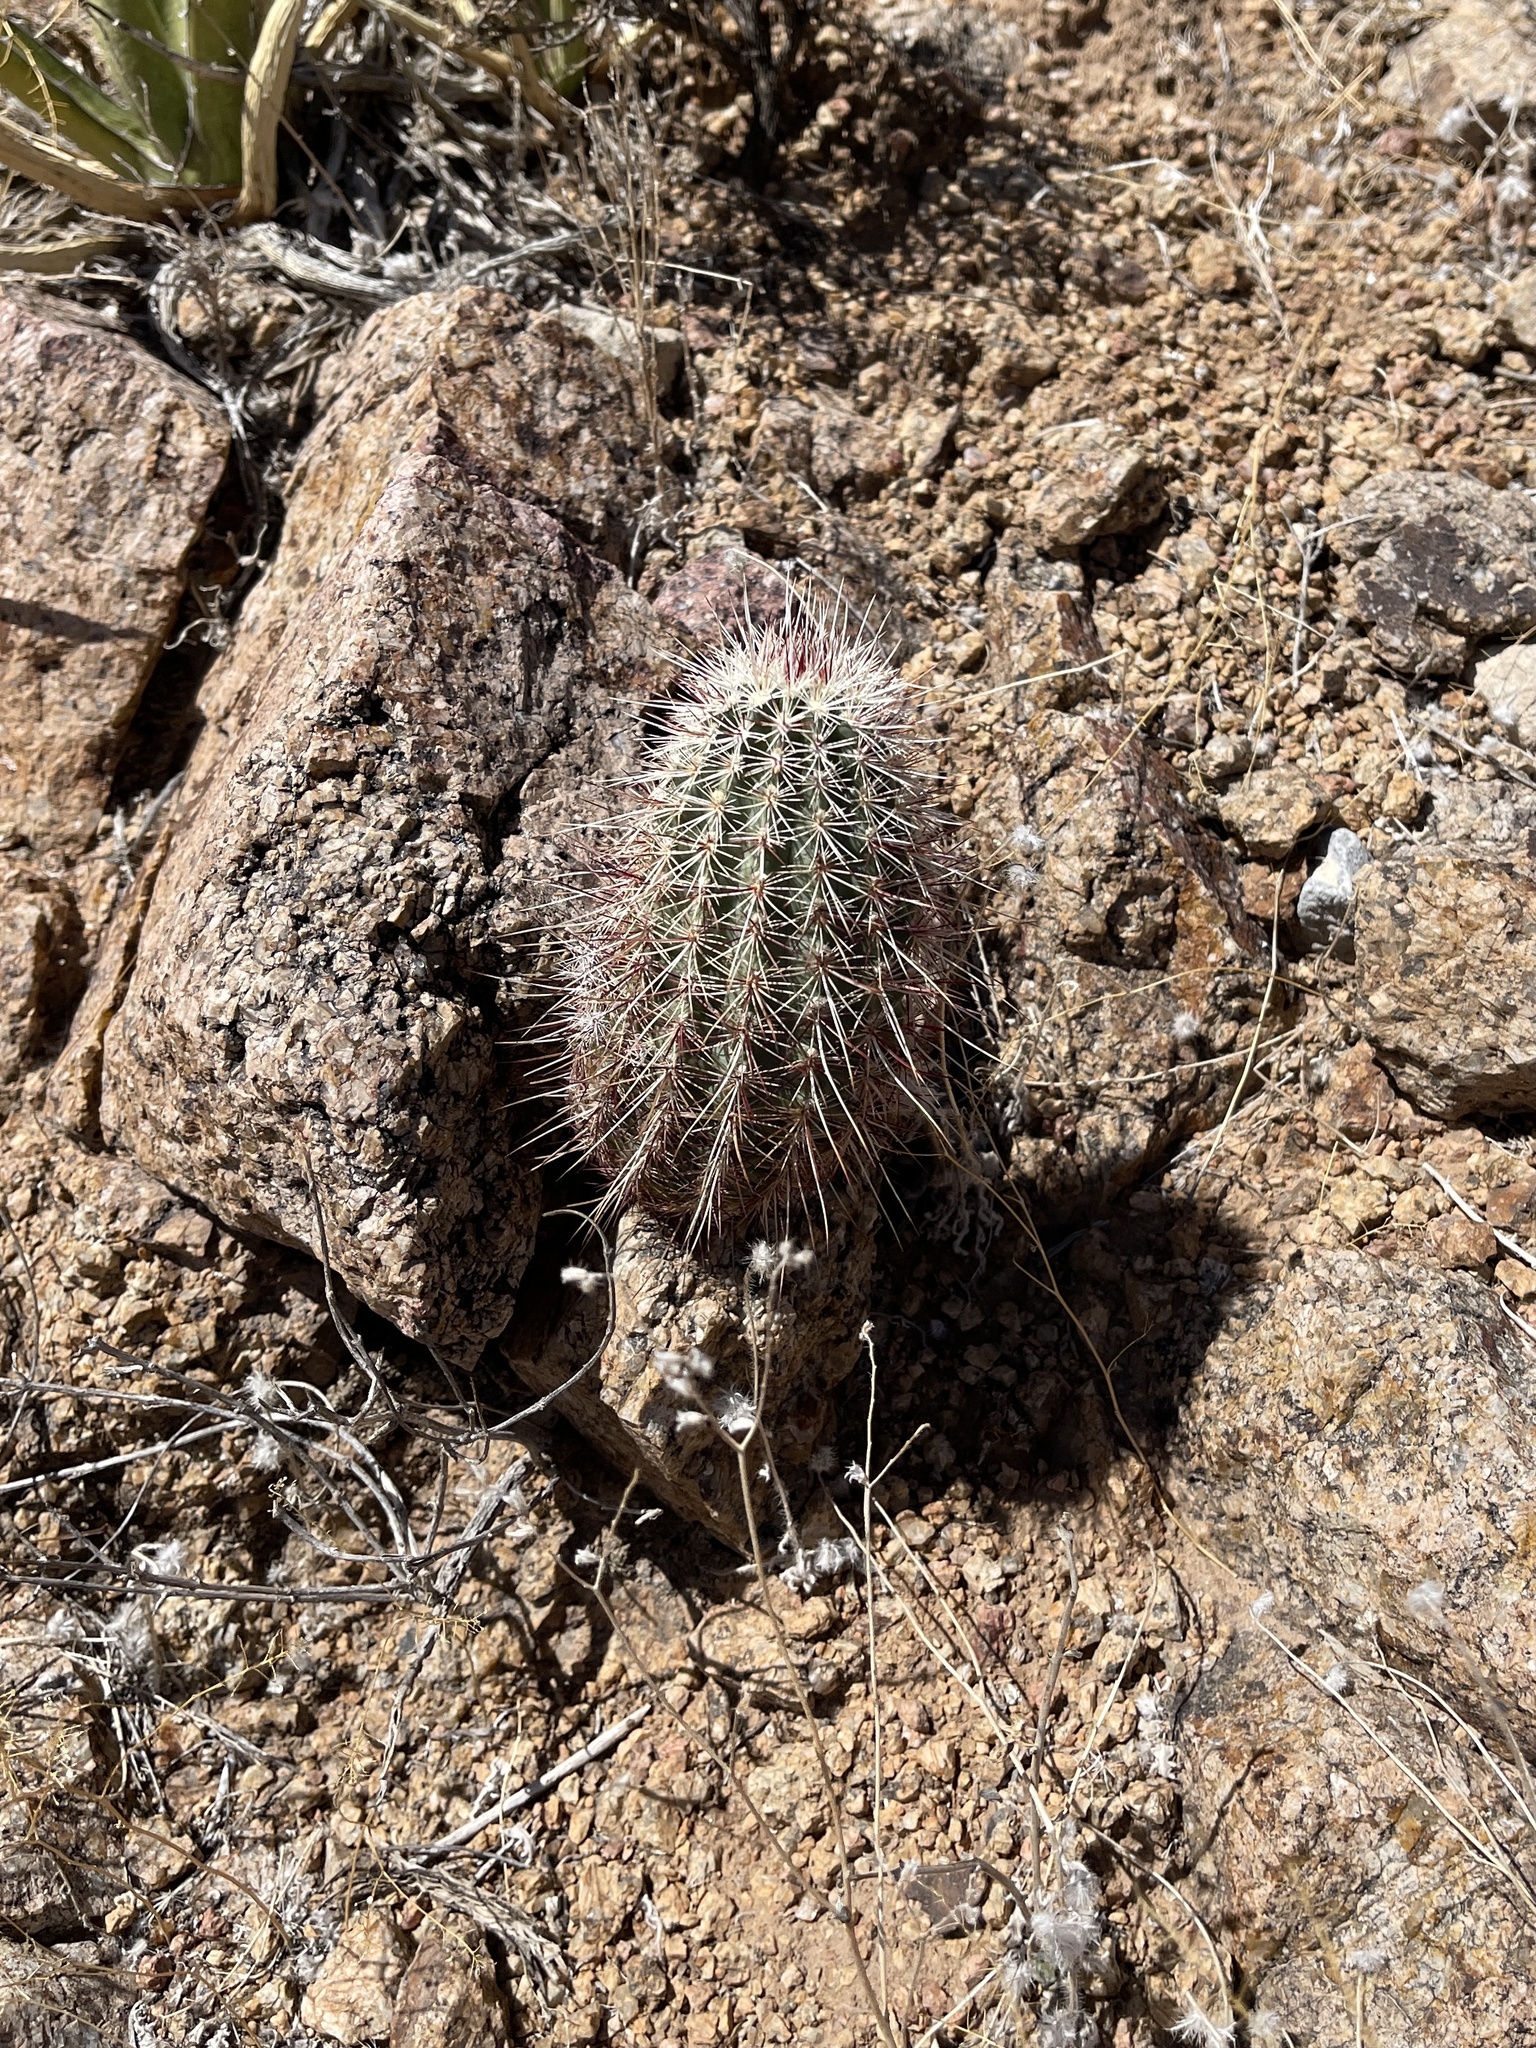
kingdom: Plantae
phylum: Tracheophyta
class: Magnoliopsida
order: Caryophyllales
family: Cactaceae
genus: Echinocereus
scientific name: Echinocereus viridiflorus
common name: Nylon hedgehog cactus
